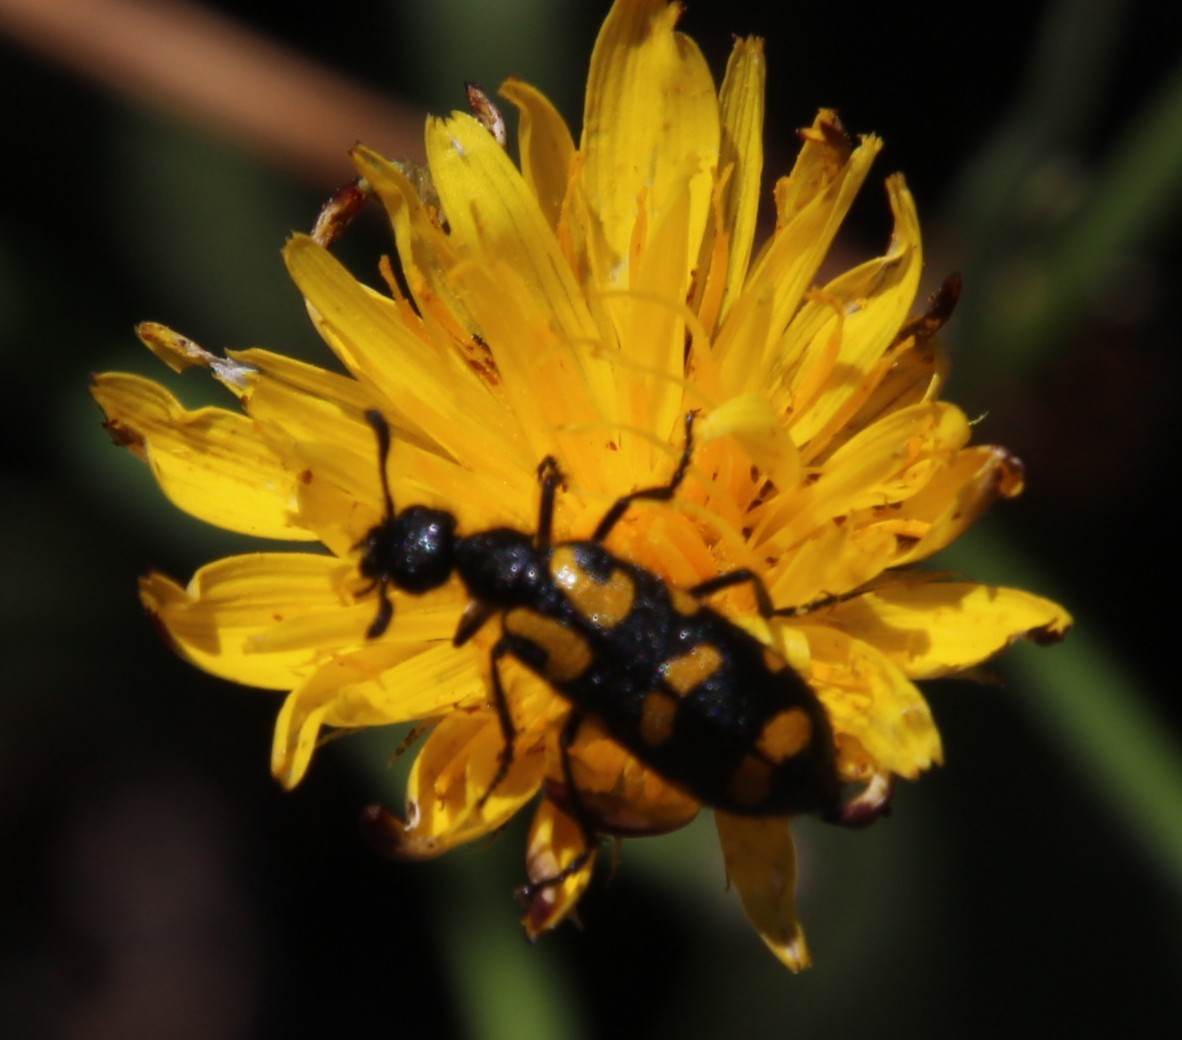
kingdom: Animalia
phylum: Arthropoda
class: Insecta
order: Coleoptera
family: Meloidae
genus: Ceroctis
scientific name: Ceroctis capensis
